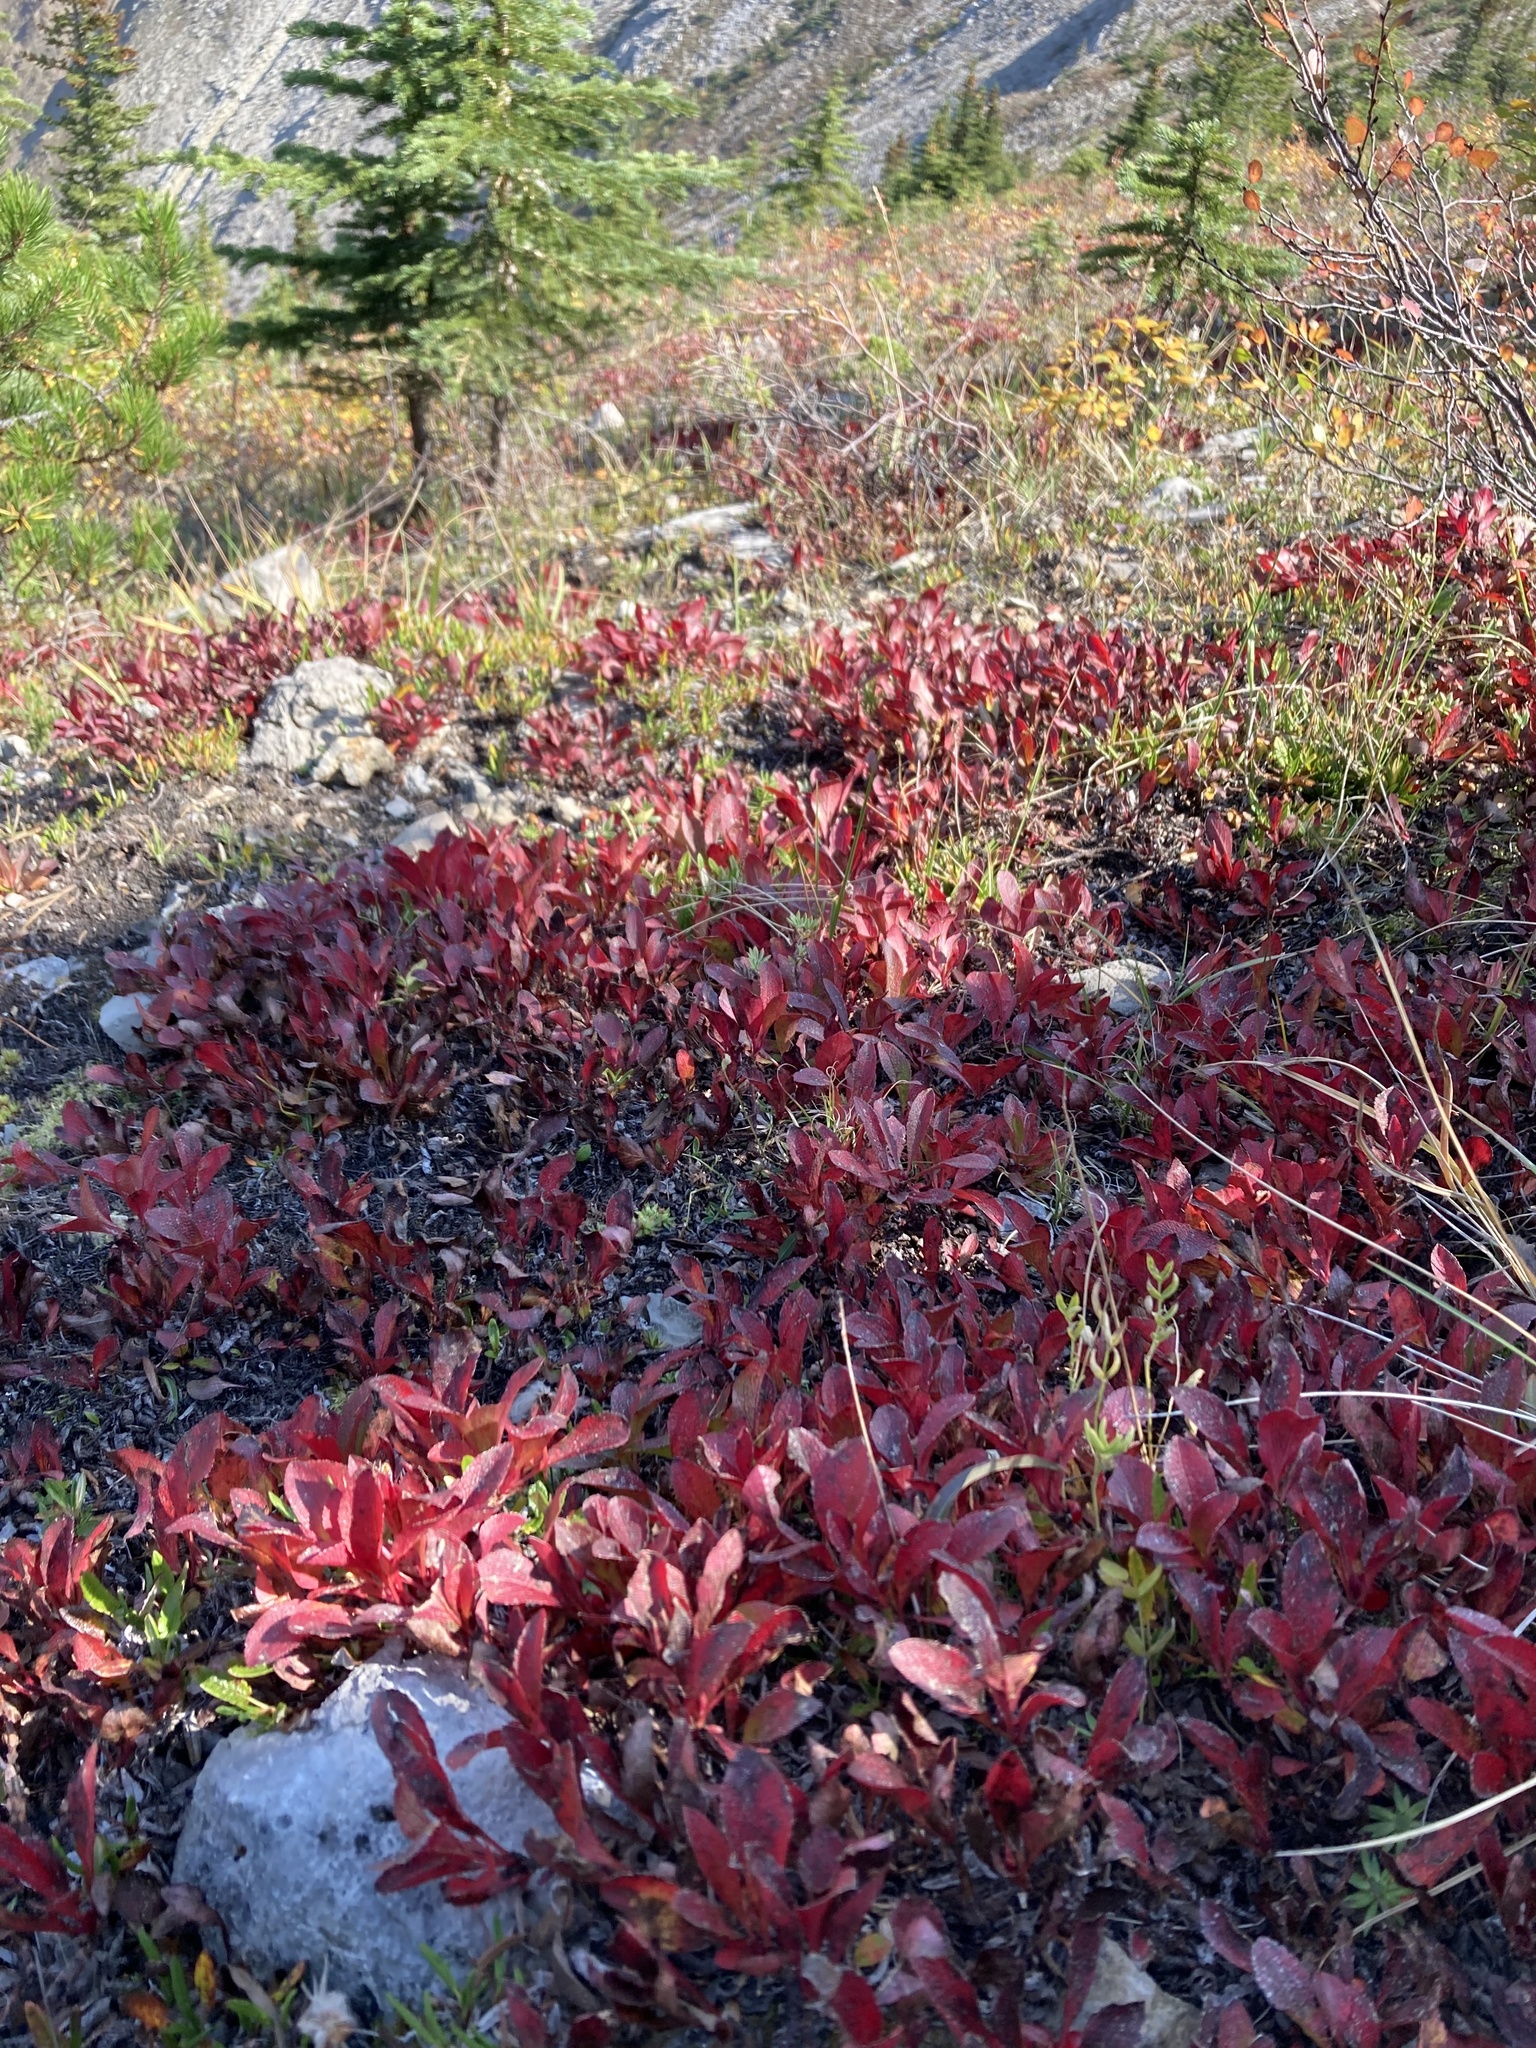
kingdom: Plantae
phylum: Tracheophyta
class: Magnoliopsida
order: Ericales
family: Ericaceae
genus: Arctostaphylos
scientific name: Arctostaphylos rubra
